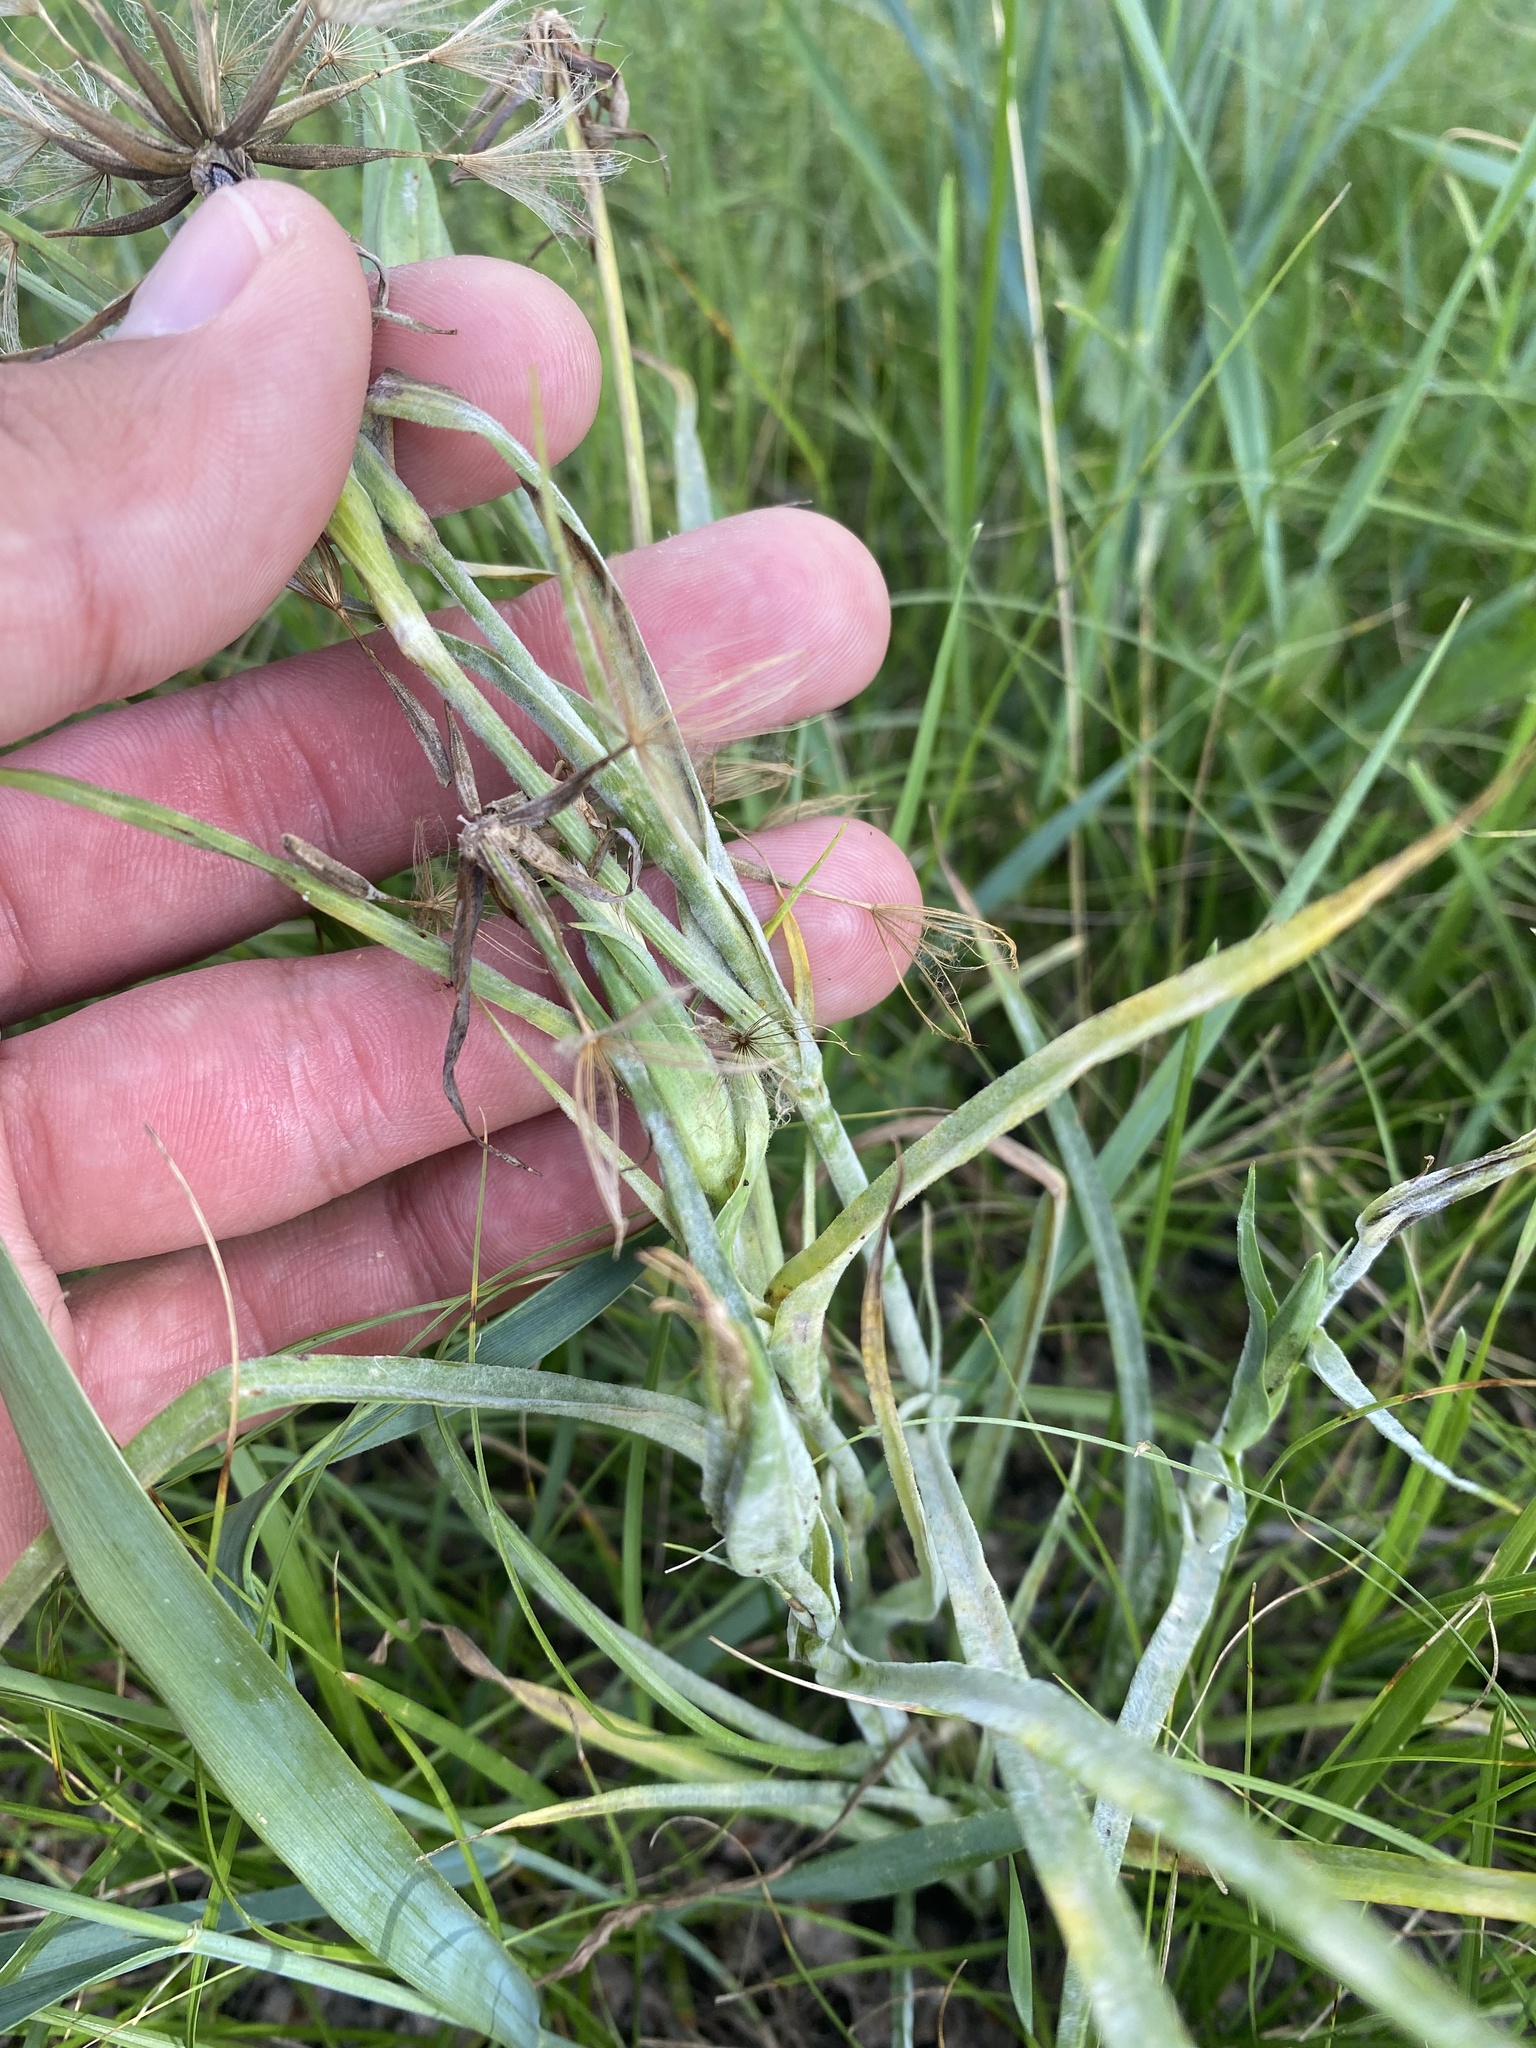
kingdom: Plantae
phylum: Tracheophyta
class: Magnoliopsida
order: Asterales
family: Asteraceae
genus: Tragopogon
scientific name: Tragopogon orientalis
